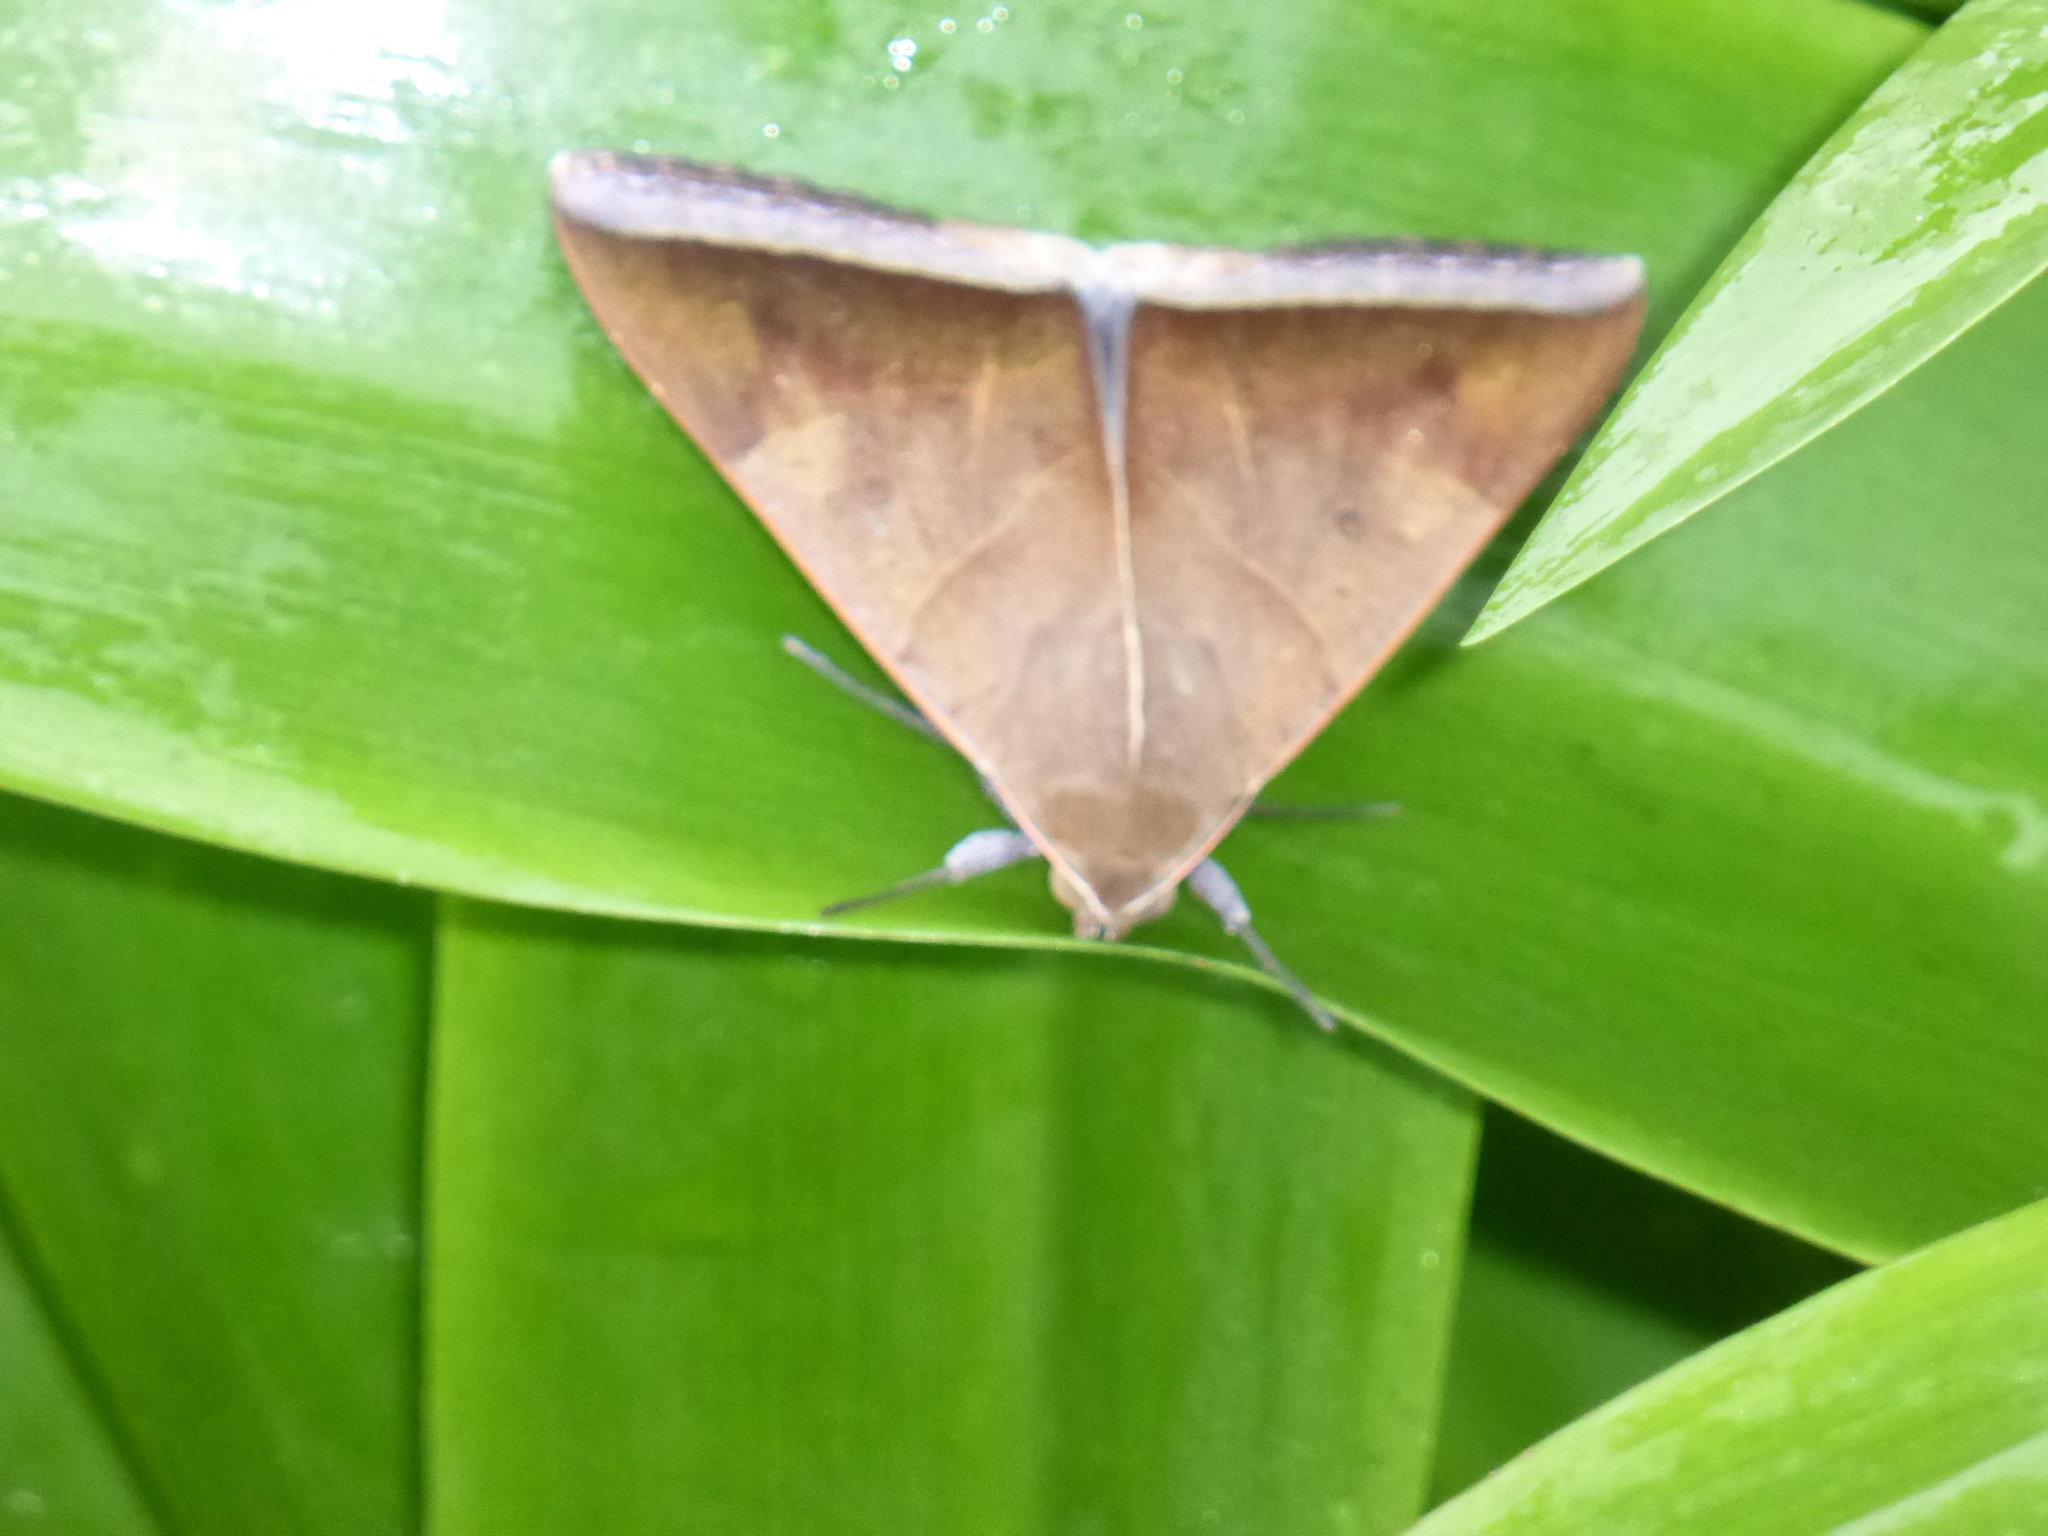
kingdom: Animalia
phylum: Arthropoda
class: Insecta
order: Lepidoptera
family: Erebidae
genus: Artena
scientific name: Artena dotata
